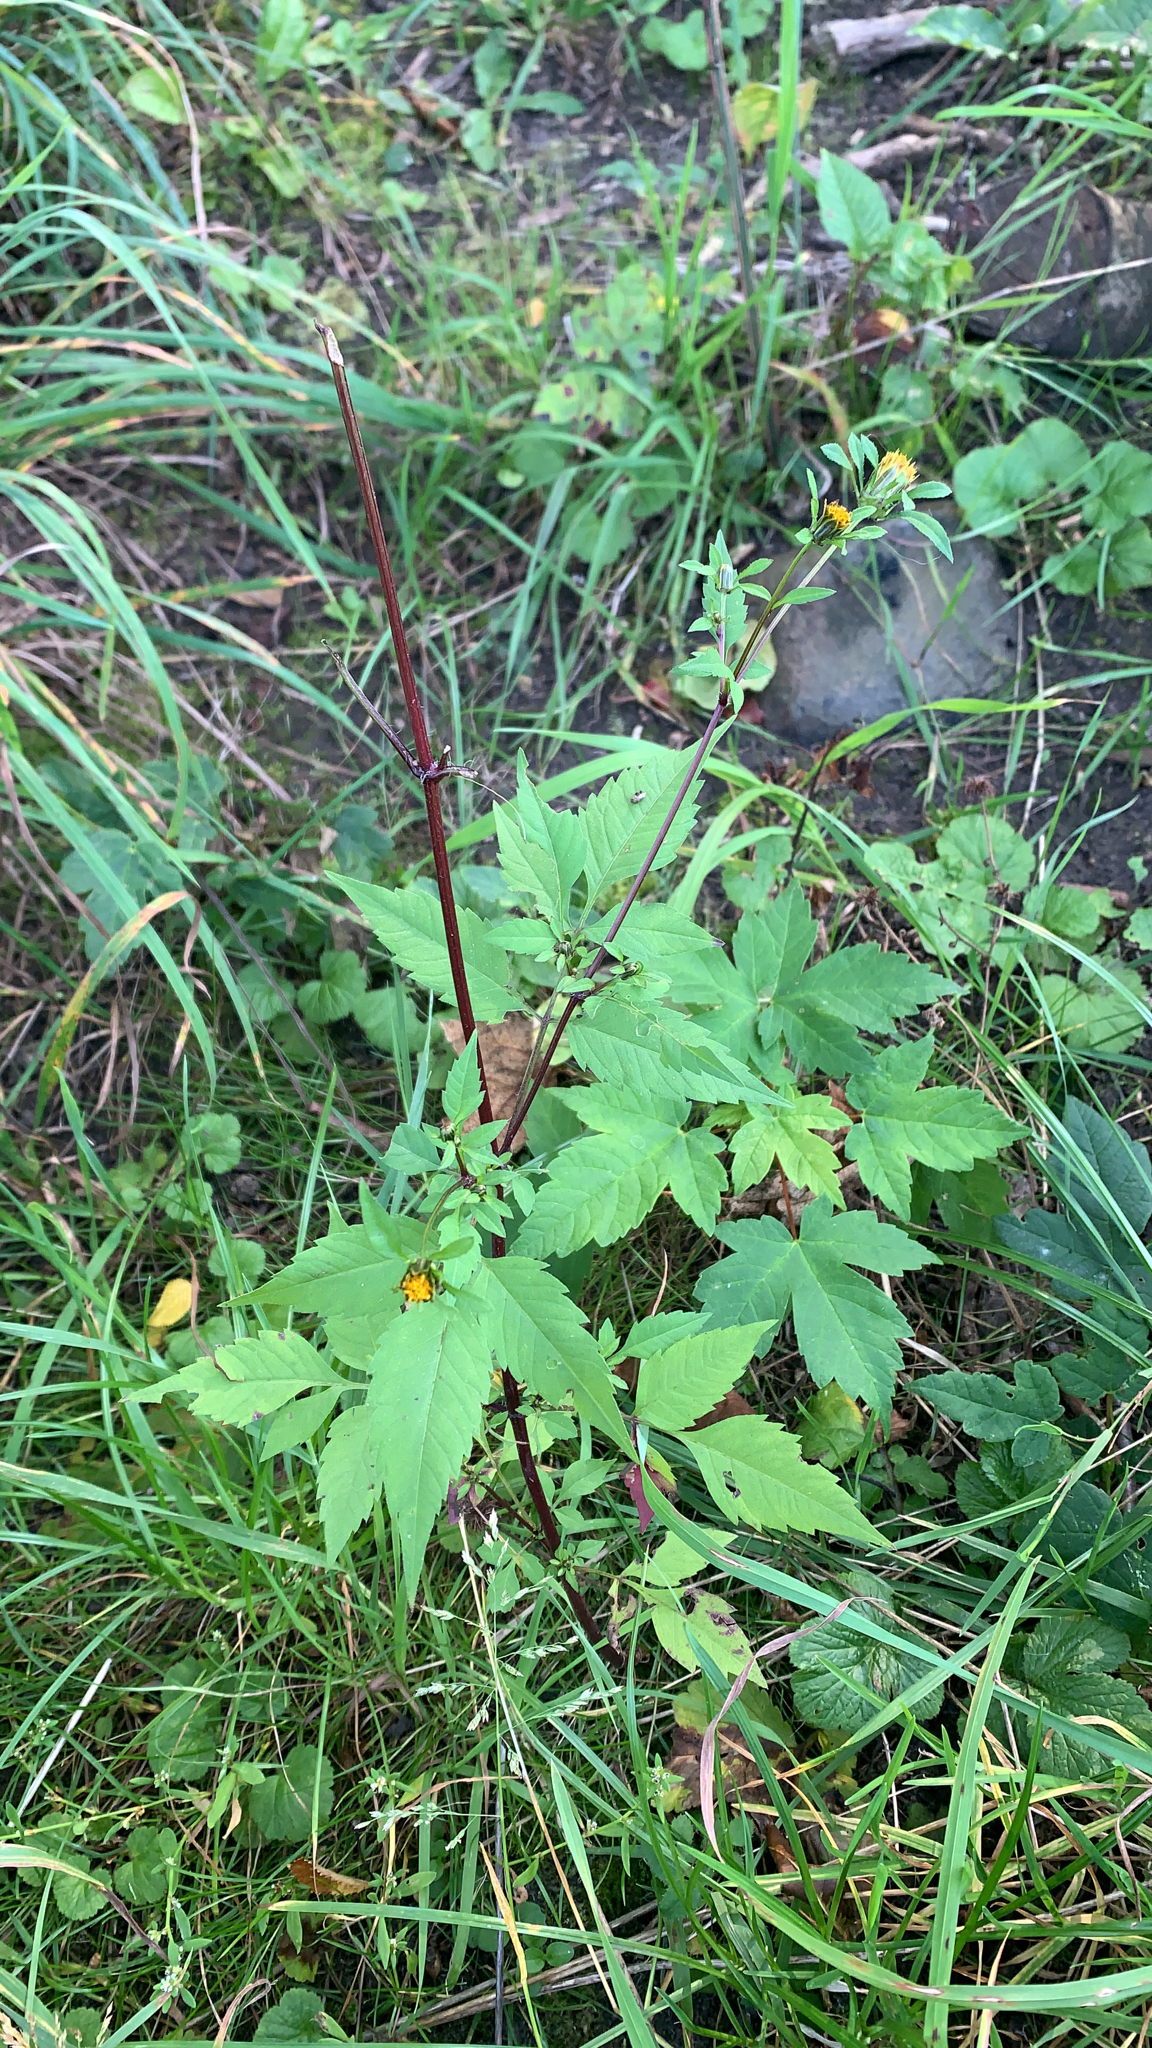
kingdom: Plantae
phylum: Tracheophyta
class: Magnoliopsida
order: Asterales
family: Asteraceae
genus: Bidens
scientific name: Bidens frondosa
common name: Beggarticks
